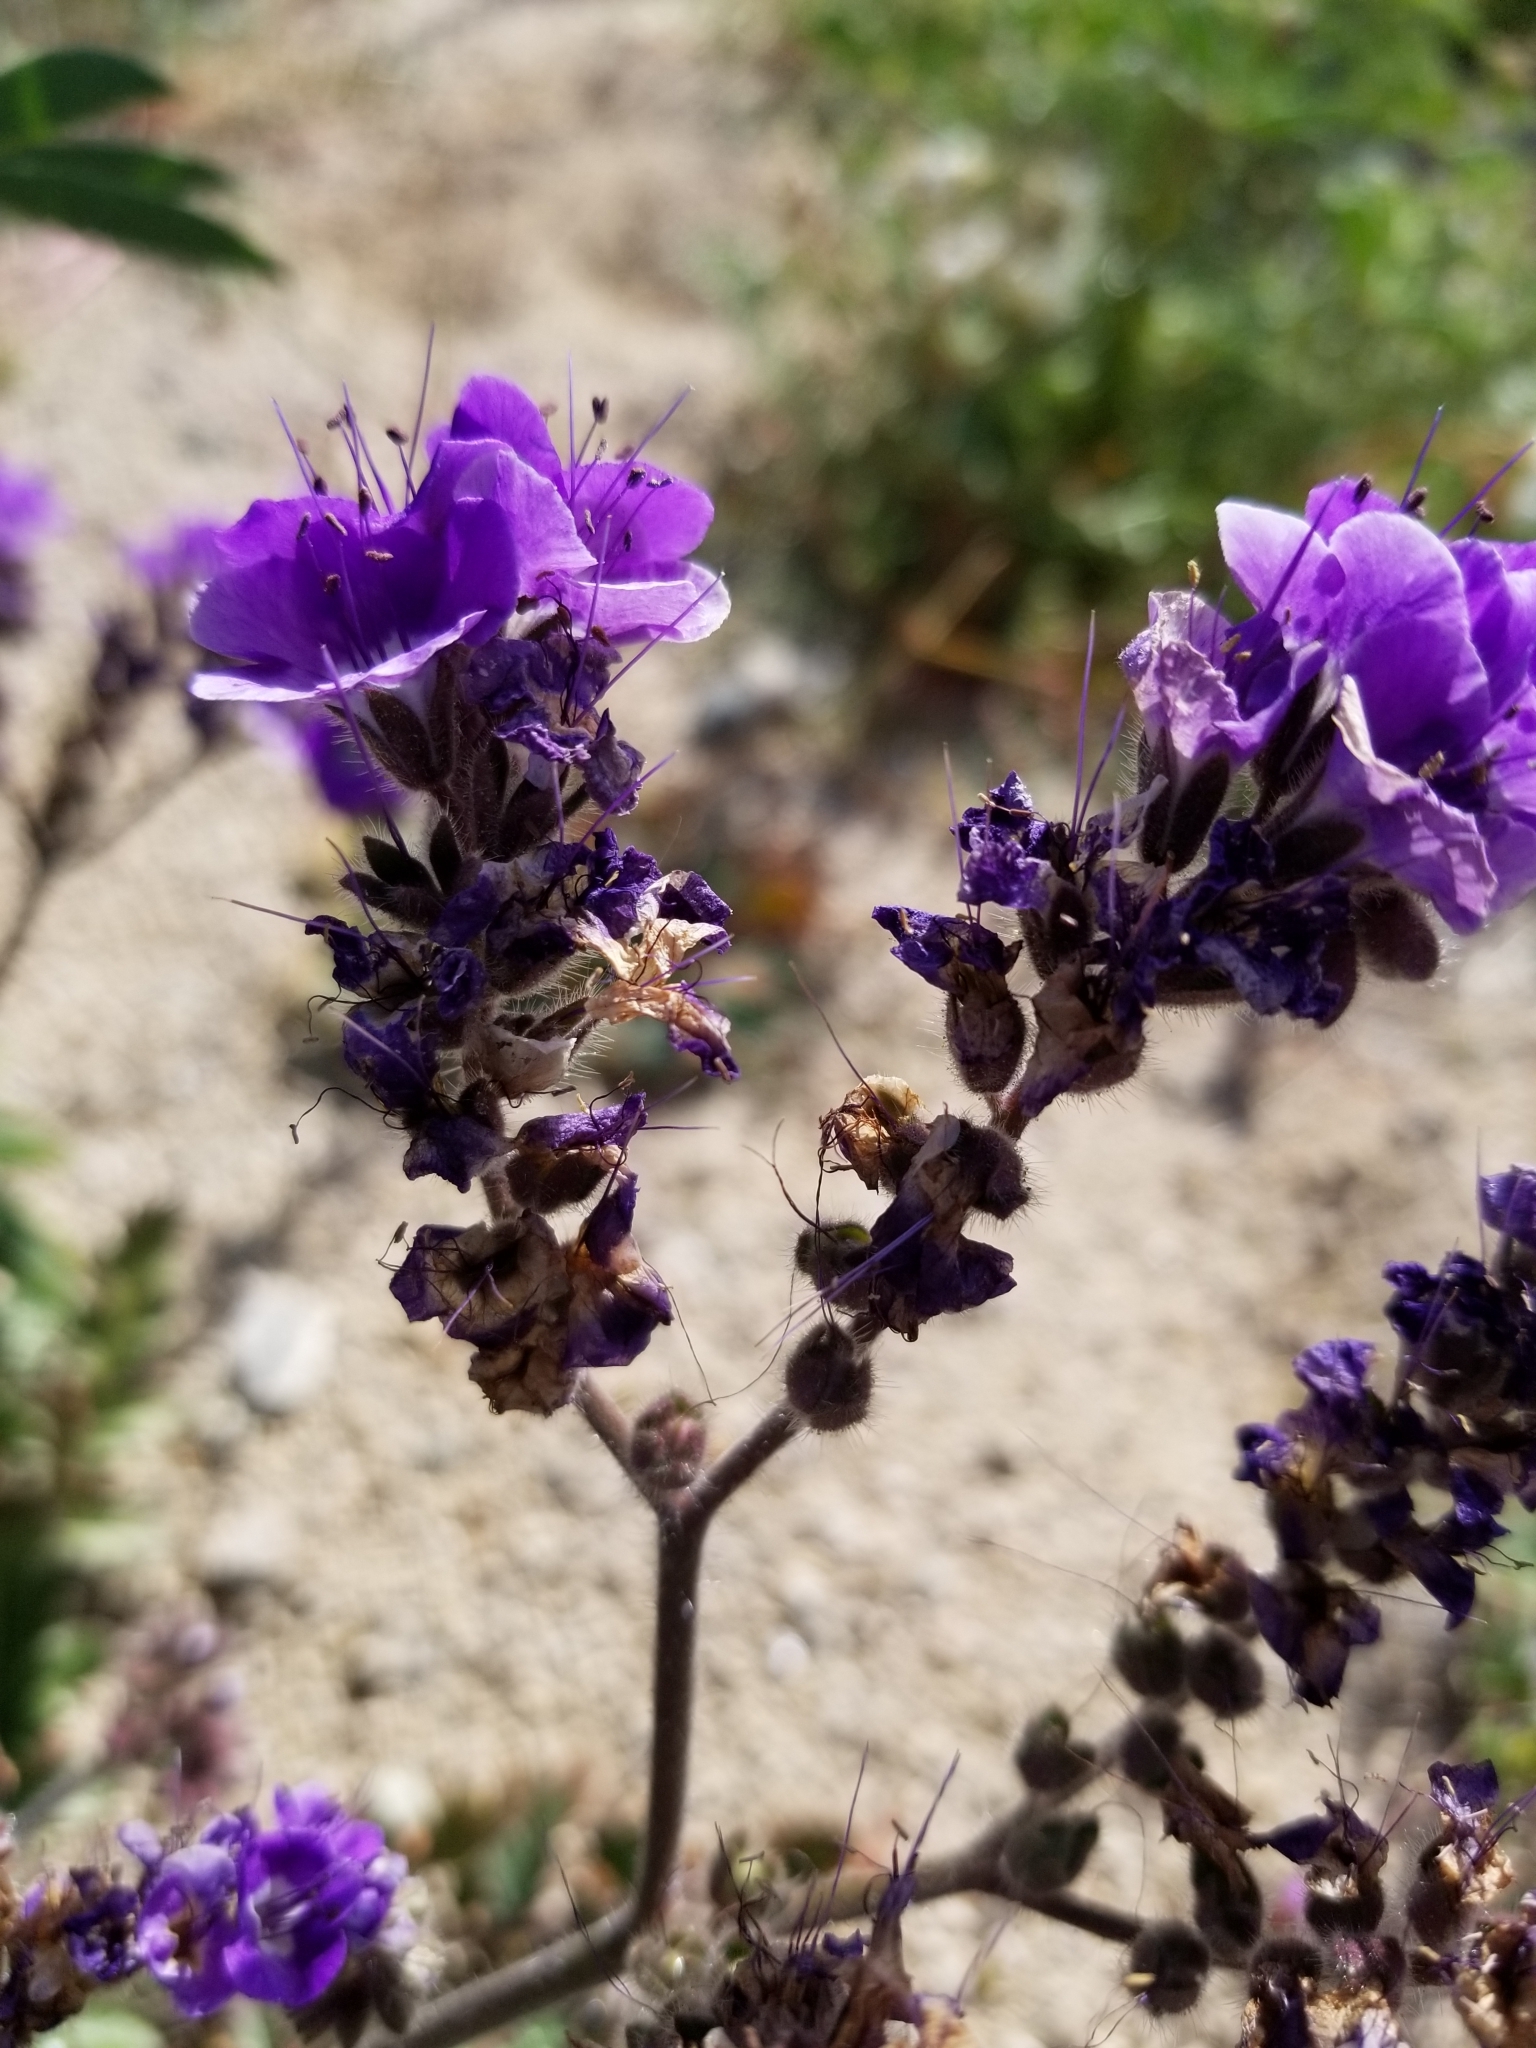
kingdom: Plantae
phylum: Tracheophyta
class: Magnoliopsida
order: Boraginales
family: Hydrophyllaceae
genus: Phacelia
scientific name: Phacelia crenulata
